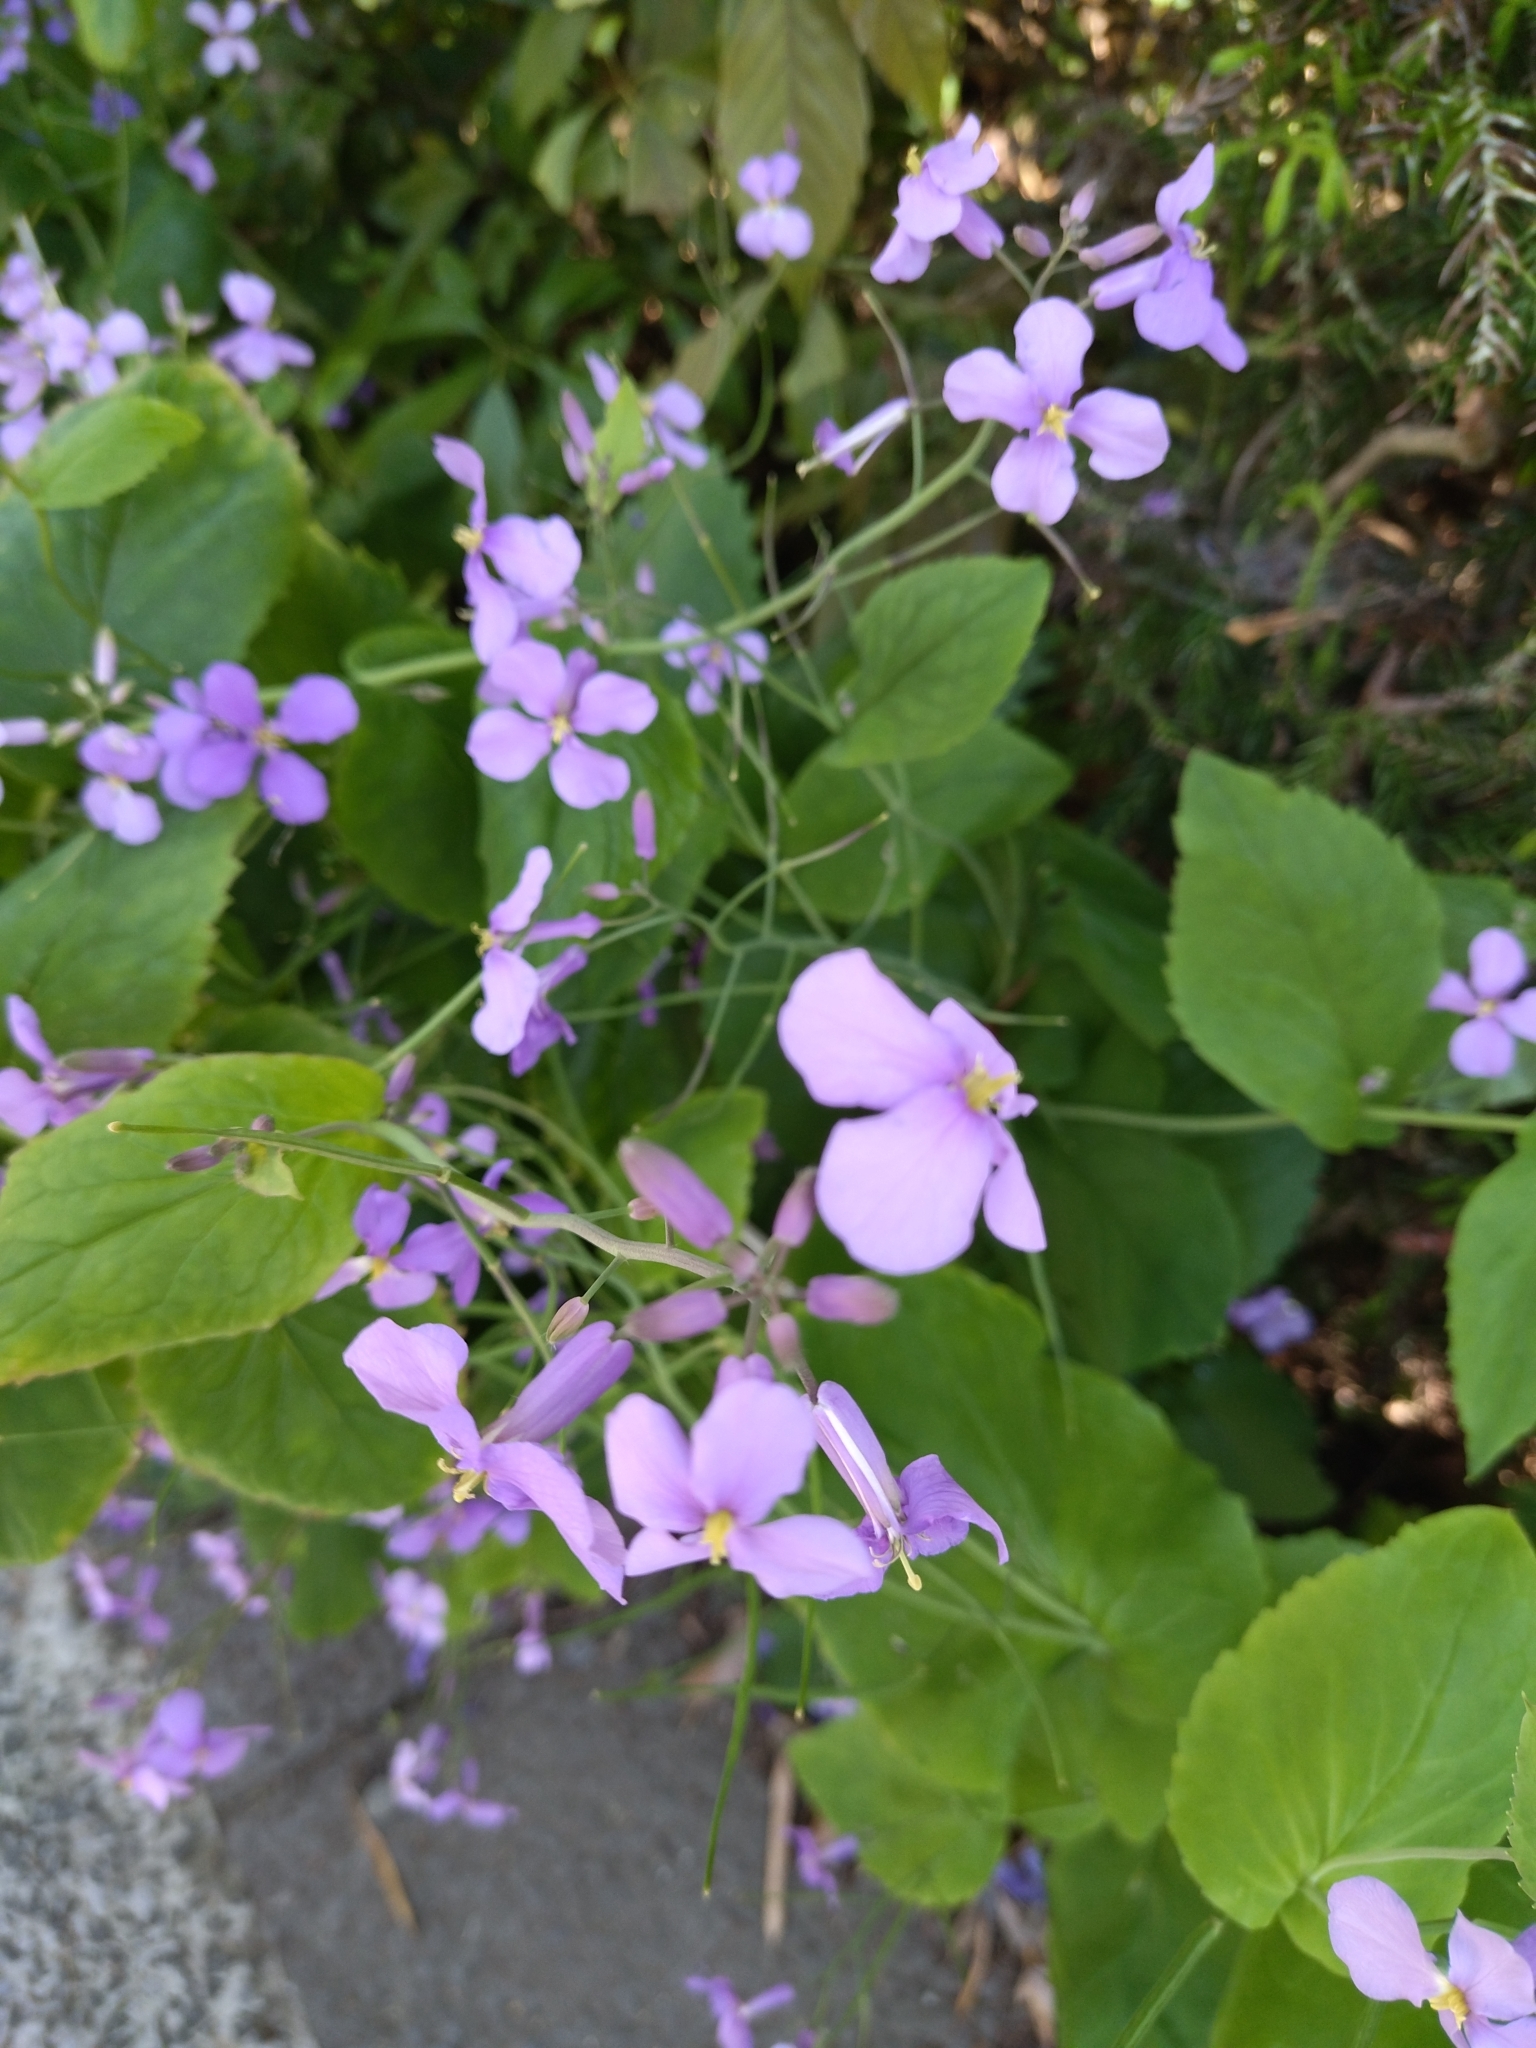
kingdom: Plantae
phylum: Tracheophyta
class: Magnoliopsida
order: Brassicales
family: Brassicaceae
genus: Orychophragmus
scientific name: Orychophragmus violaceus
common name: Mustard
